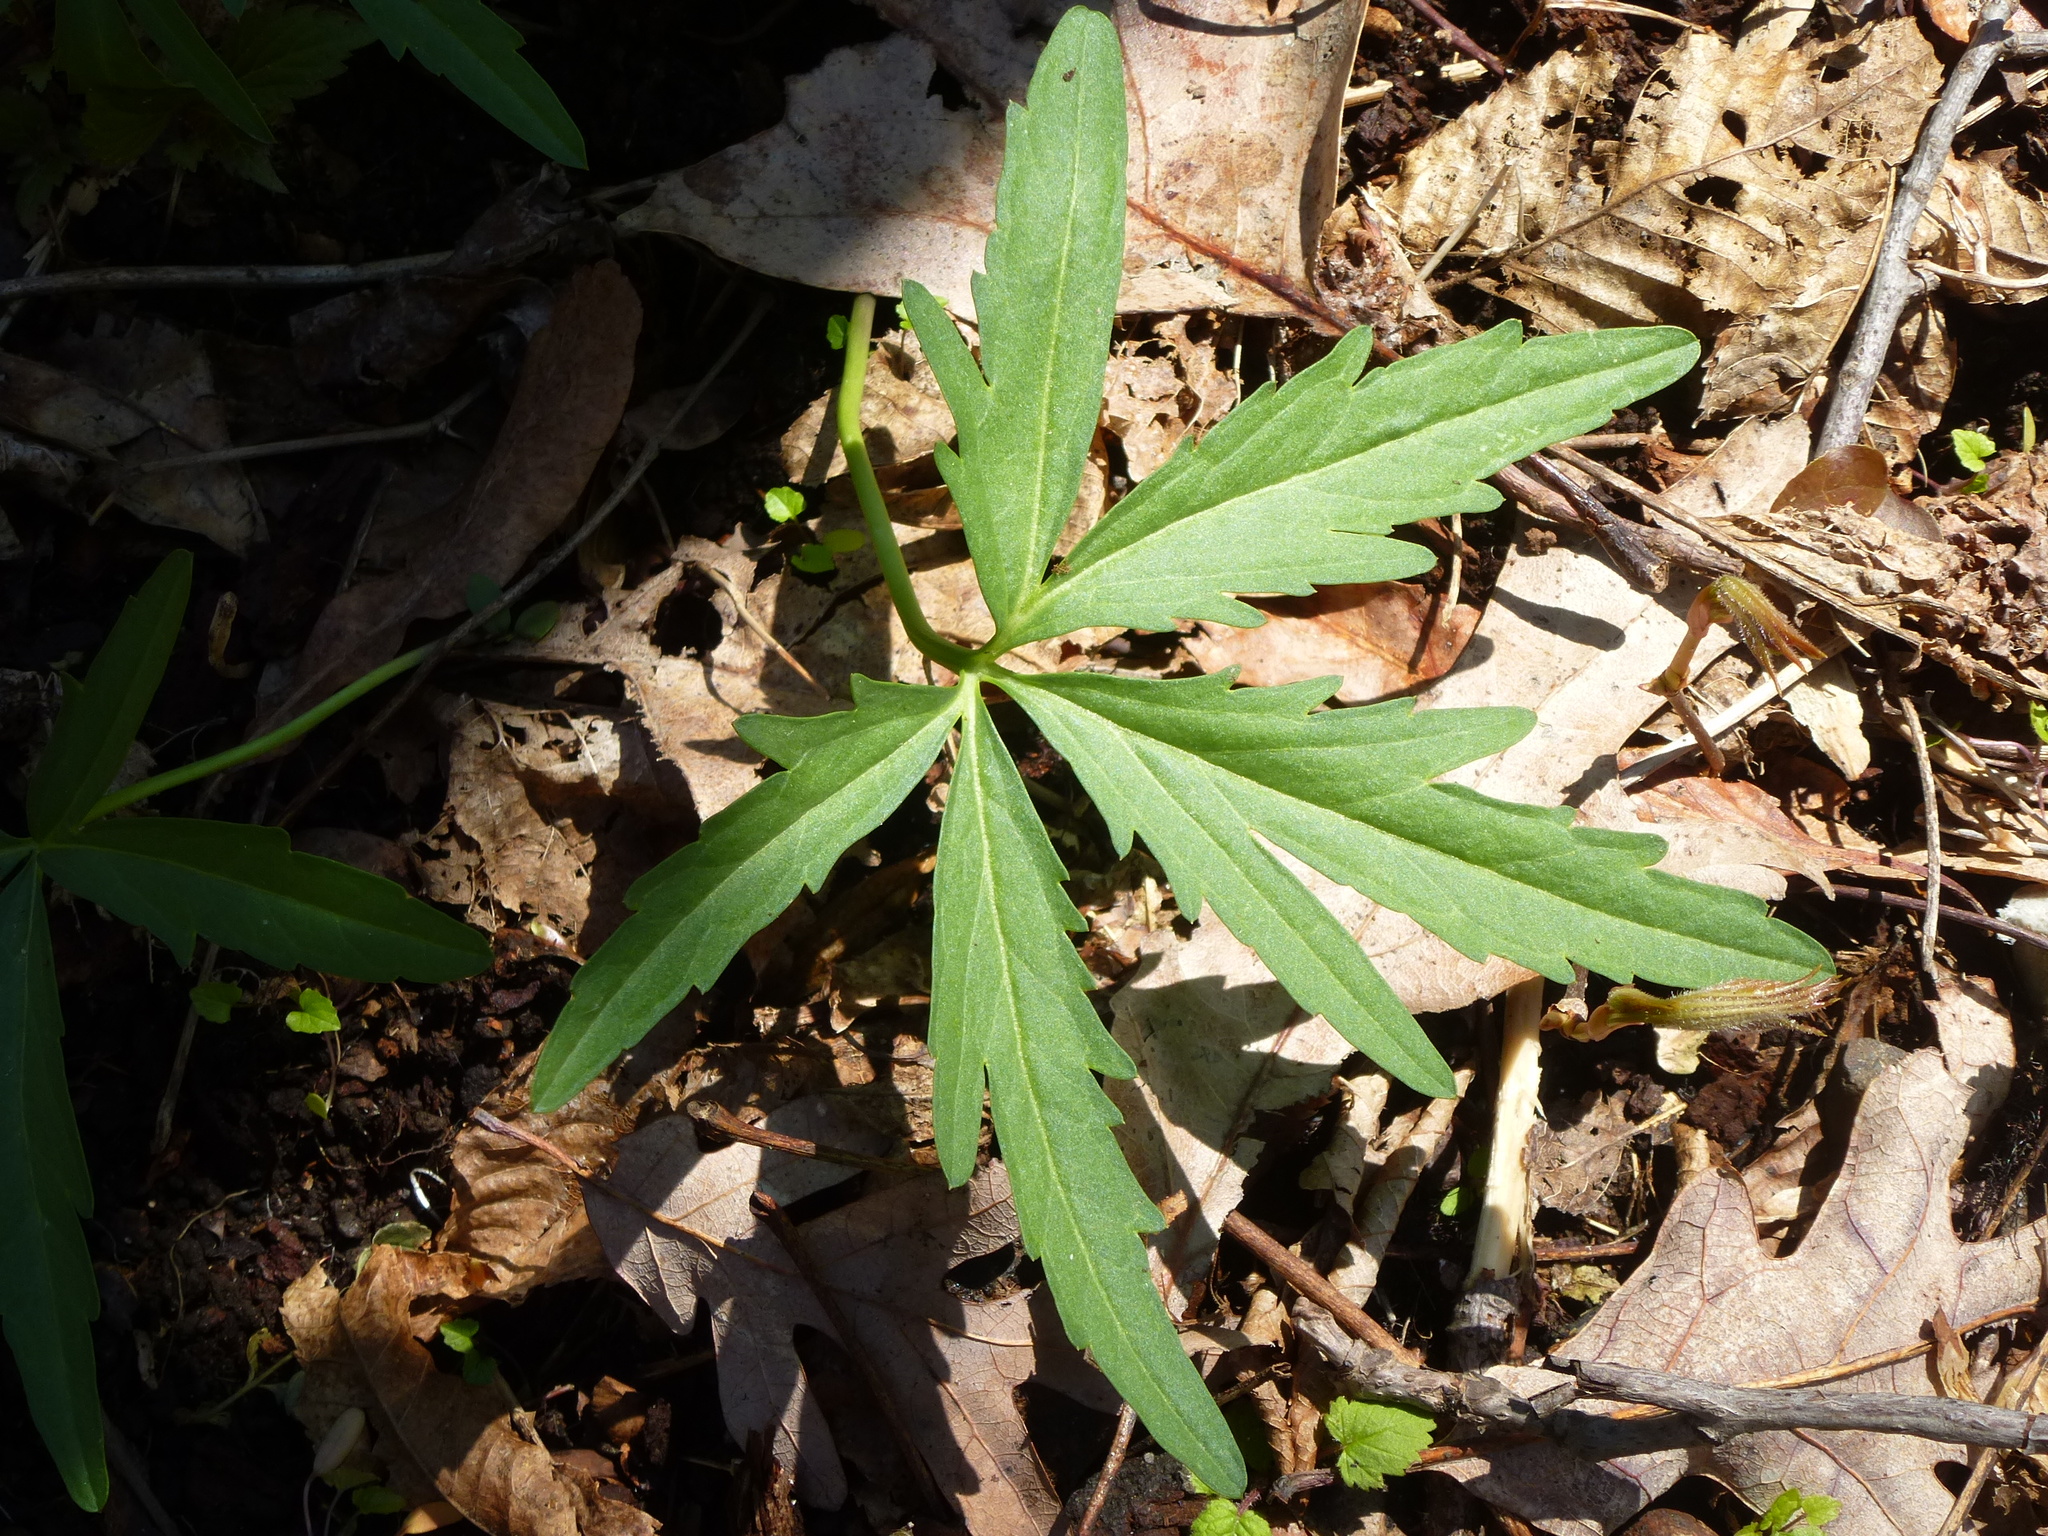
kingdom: Plantae
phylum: Tracheophyta
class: Magnoliopsida
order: Brassicales
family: Brassicaceae
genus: Cardamine
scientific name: Cardamine concatenata
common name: Cut-leaf toothcup
